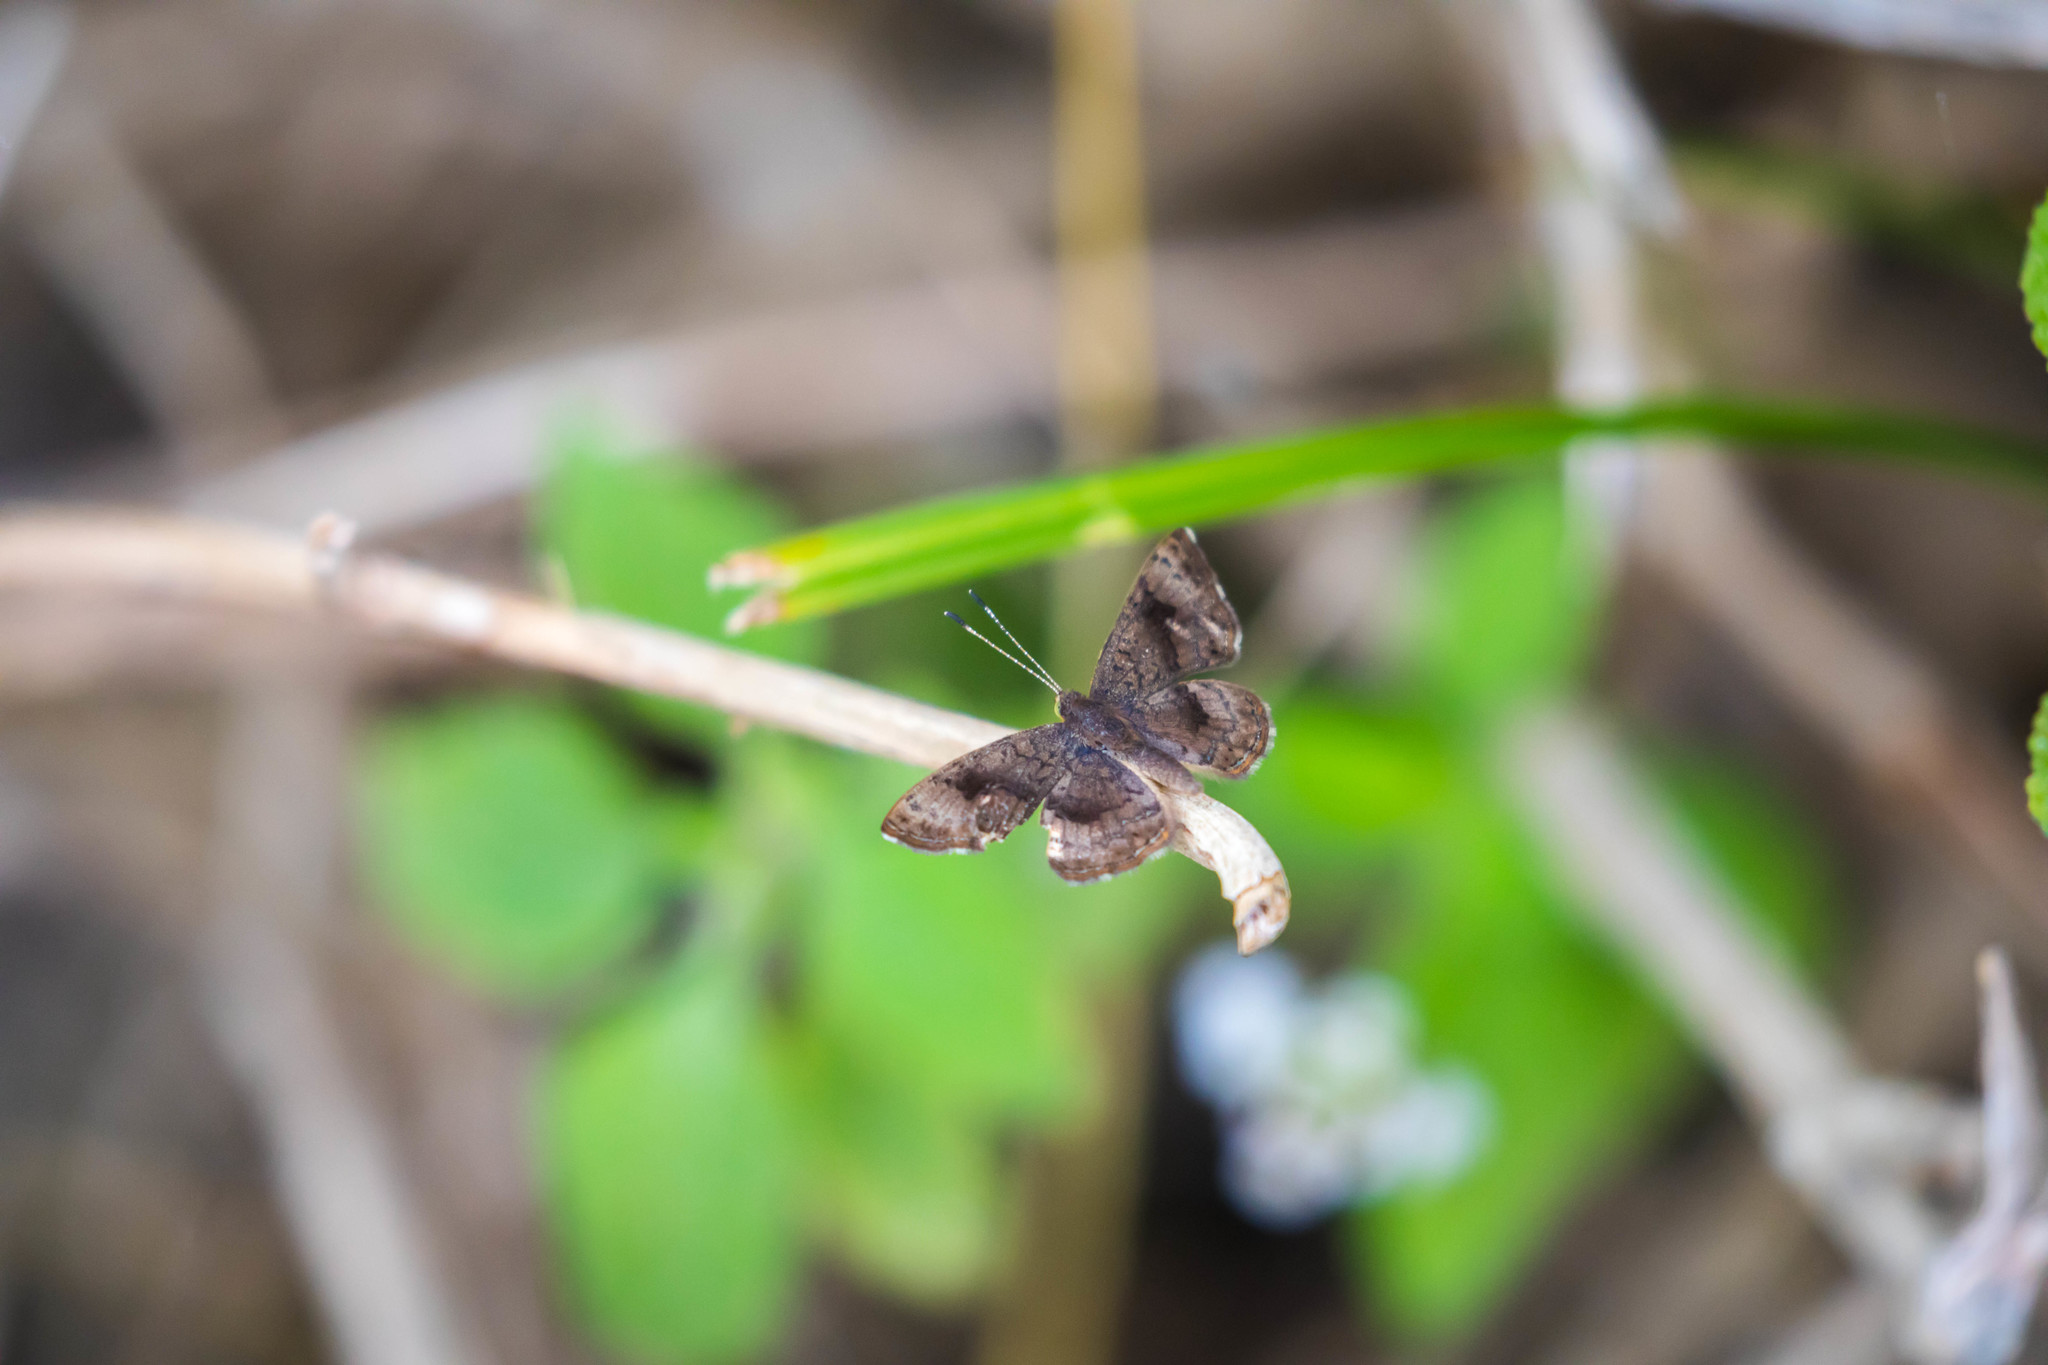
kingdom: Animalia
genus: Calephelis
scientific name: Calephelis nemesis
